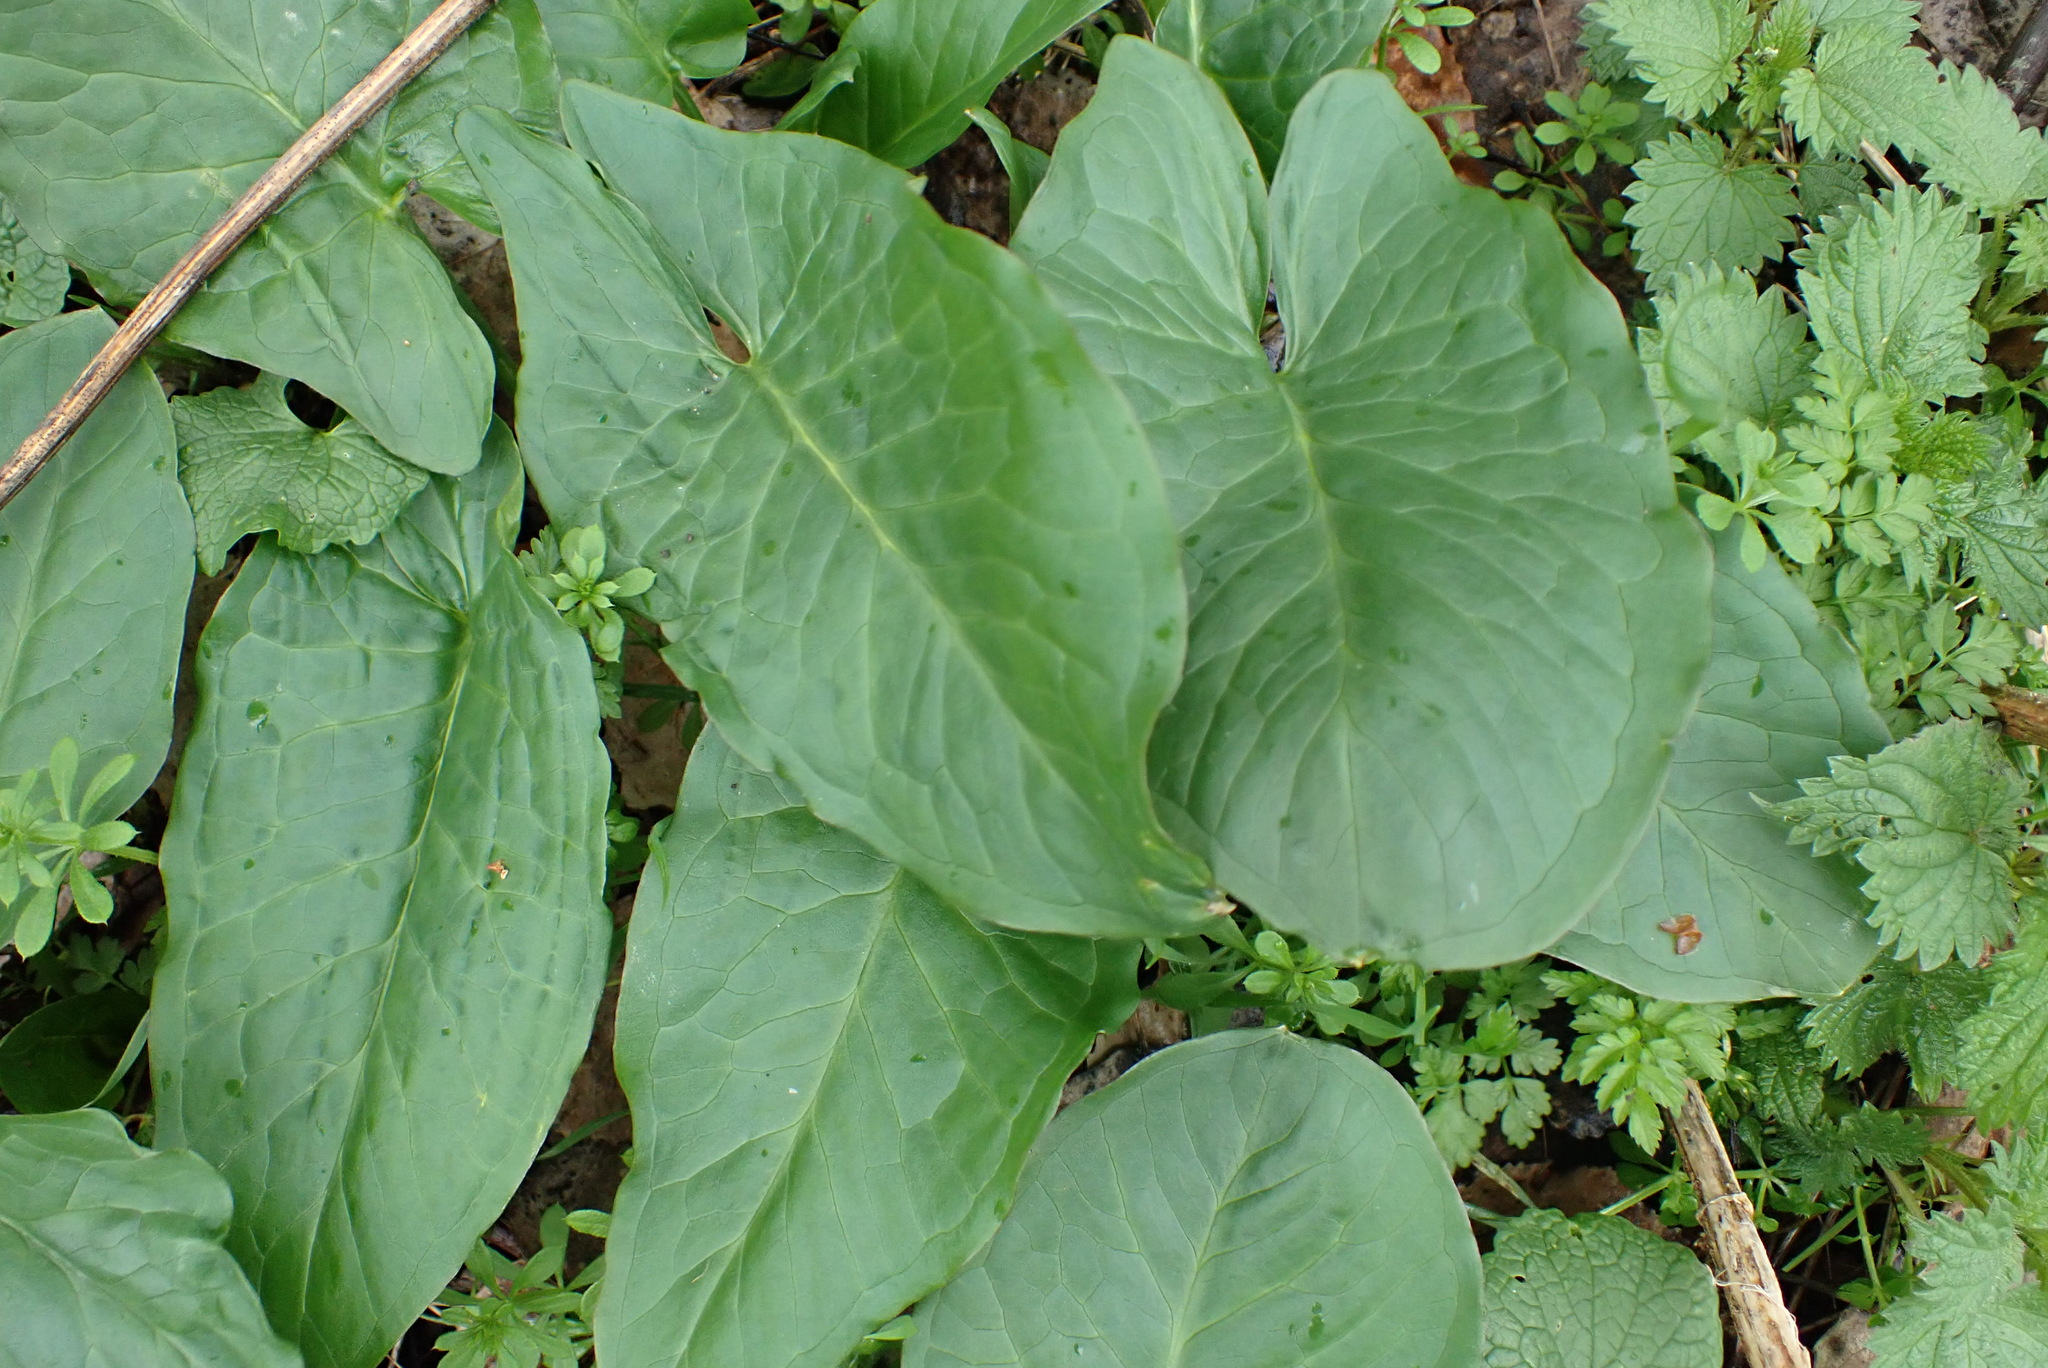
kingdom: Plantae
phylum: Tracheophyta
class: Liliopsida
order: Alismatales
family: Araceae
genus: Arum
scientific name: Arum maculatum
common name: Lords-and-ladies
